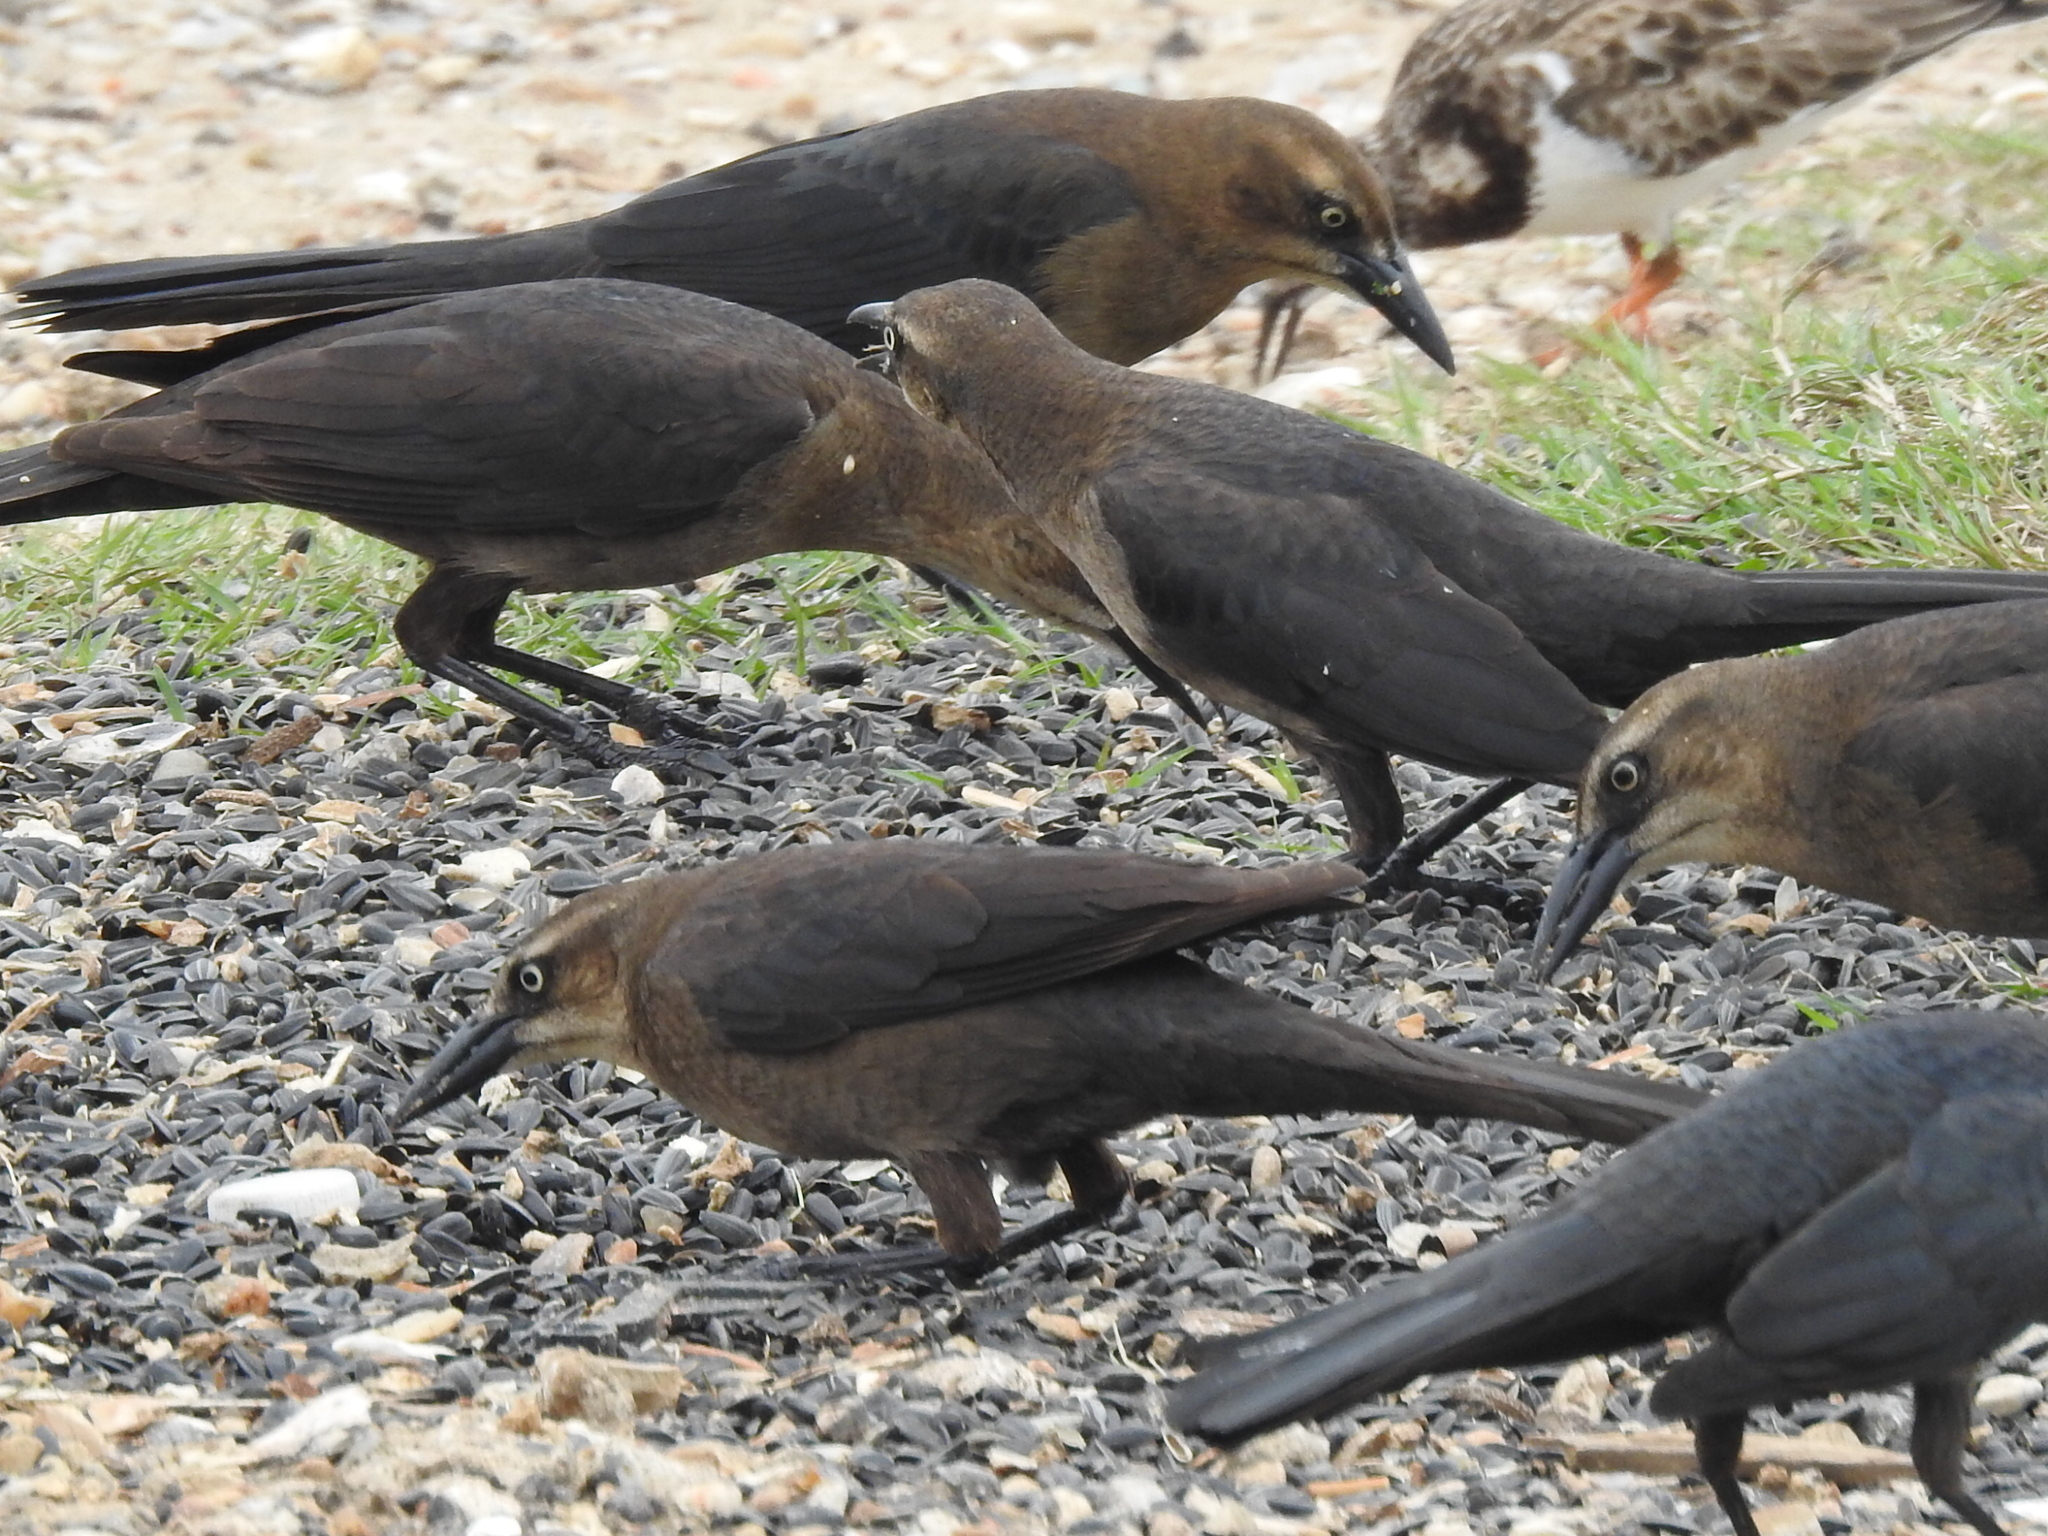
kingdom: Animalia
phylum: Chordata
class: Aves
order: Passeriformes
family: Icteridae
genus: Quiscalus
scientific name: Quiscalus mexicanus
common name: Great-tailed grackle
